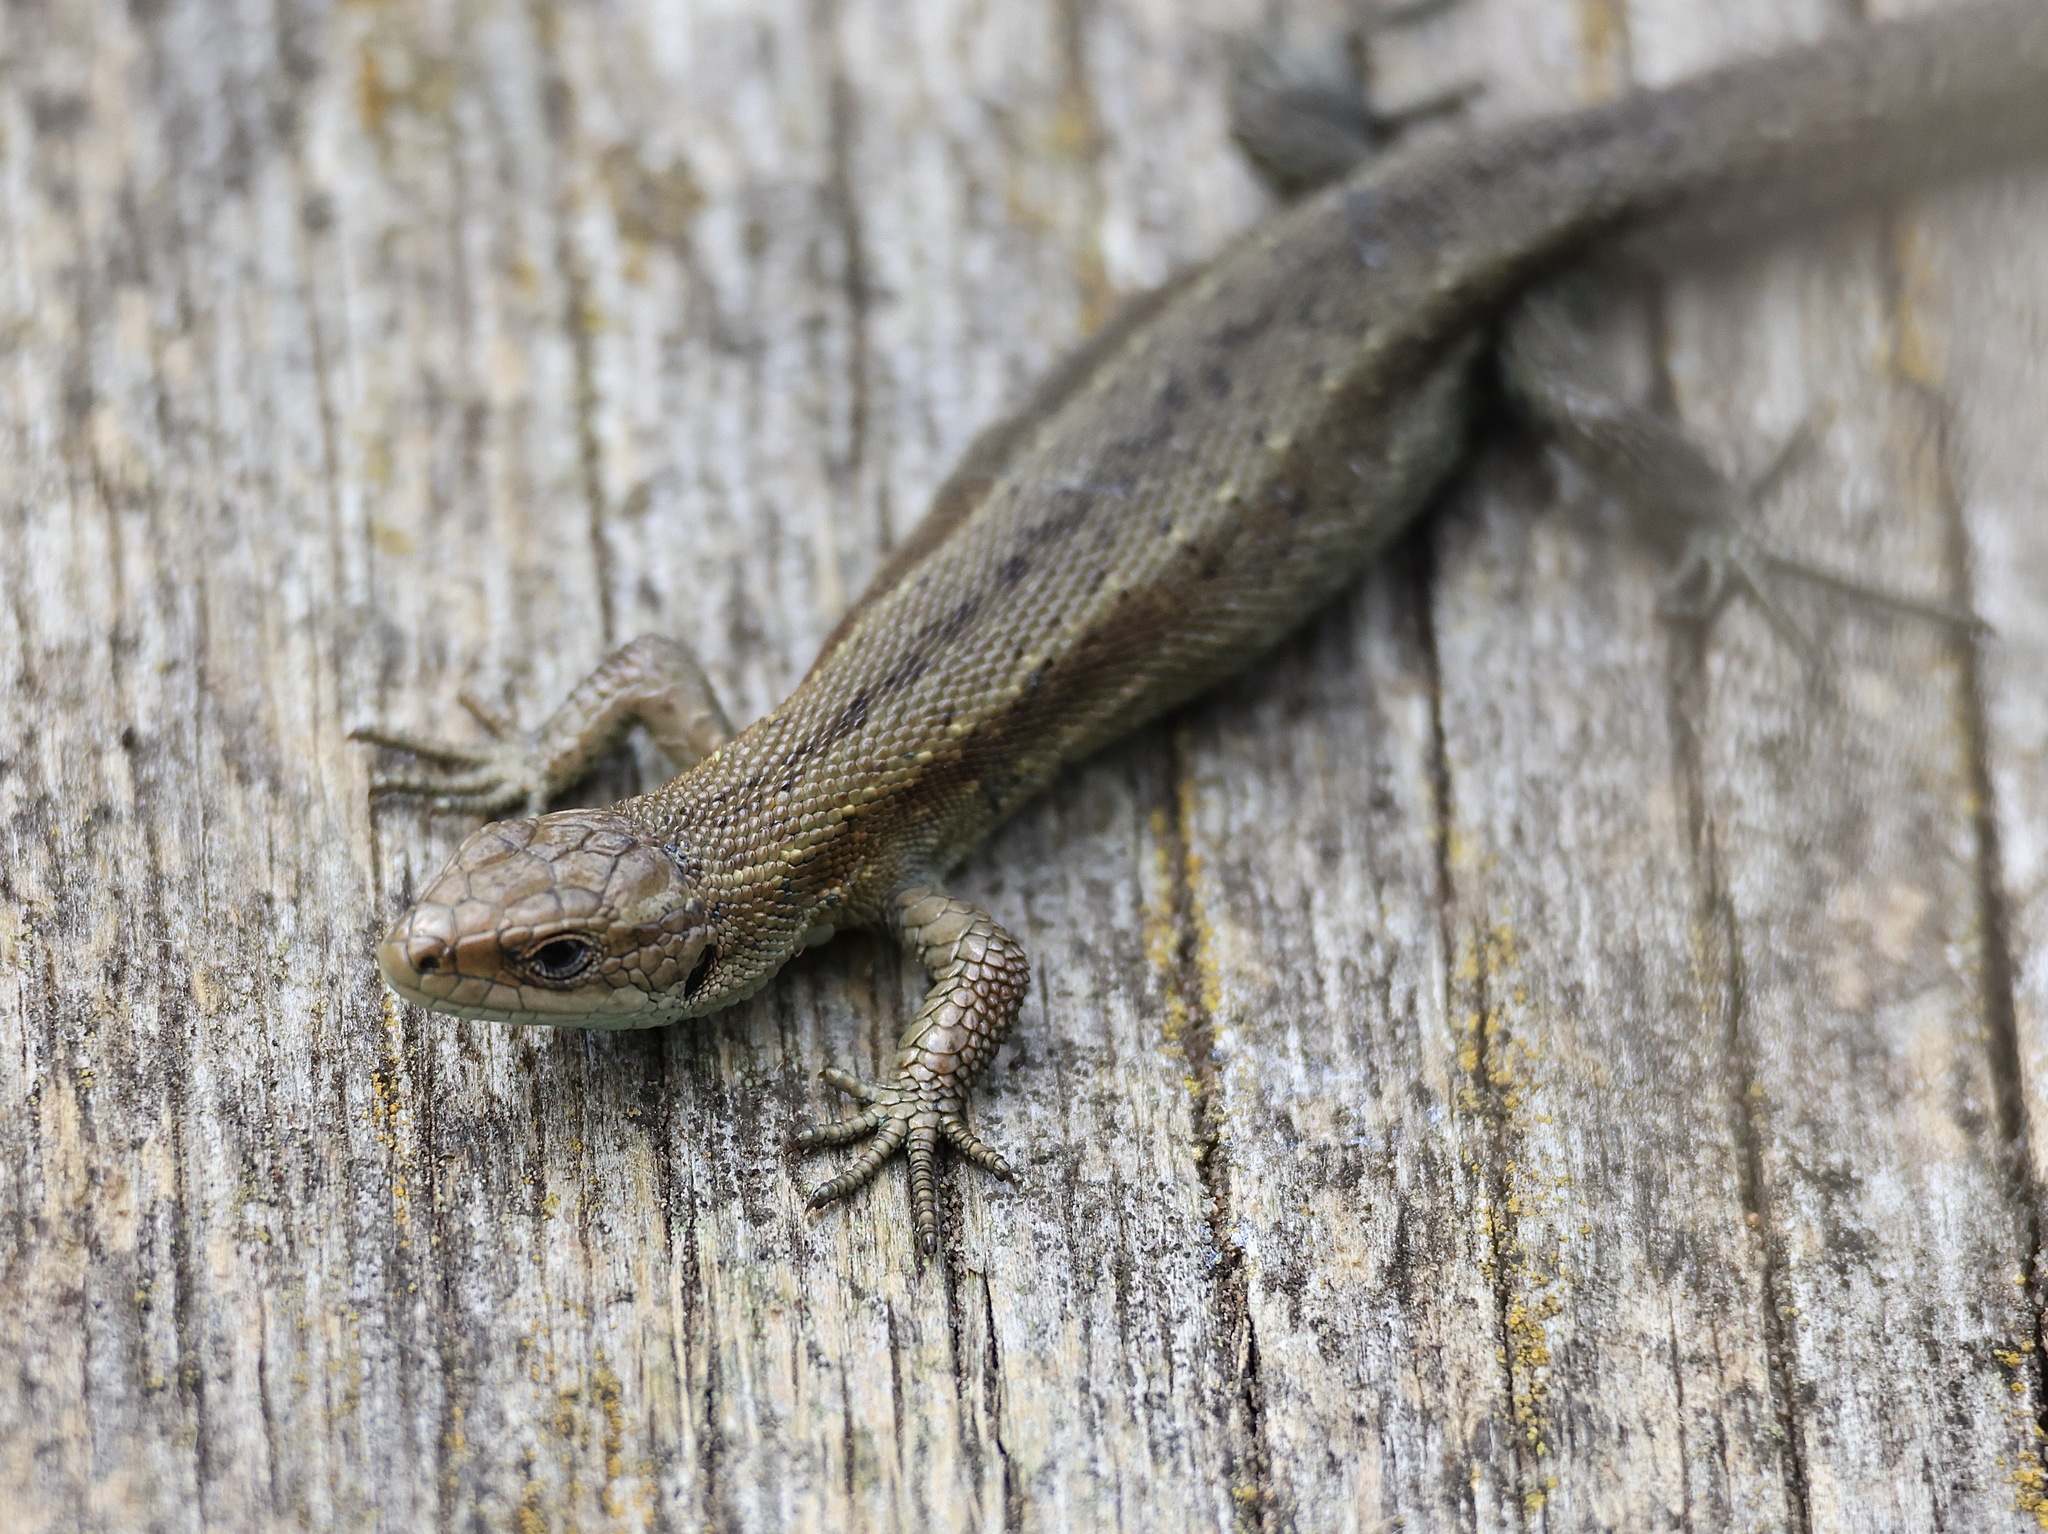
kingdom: Animalia
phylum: Chordata
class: Squamata
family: Lacertidae
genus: Zootoca
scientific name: Zootoca vivipara
